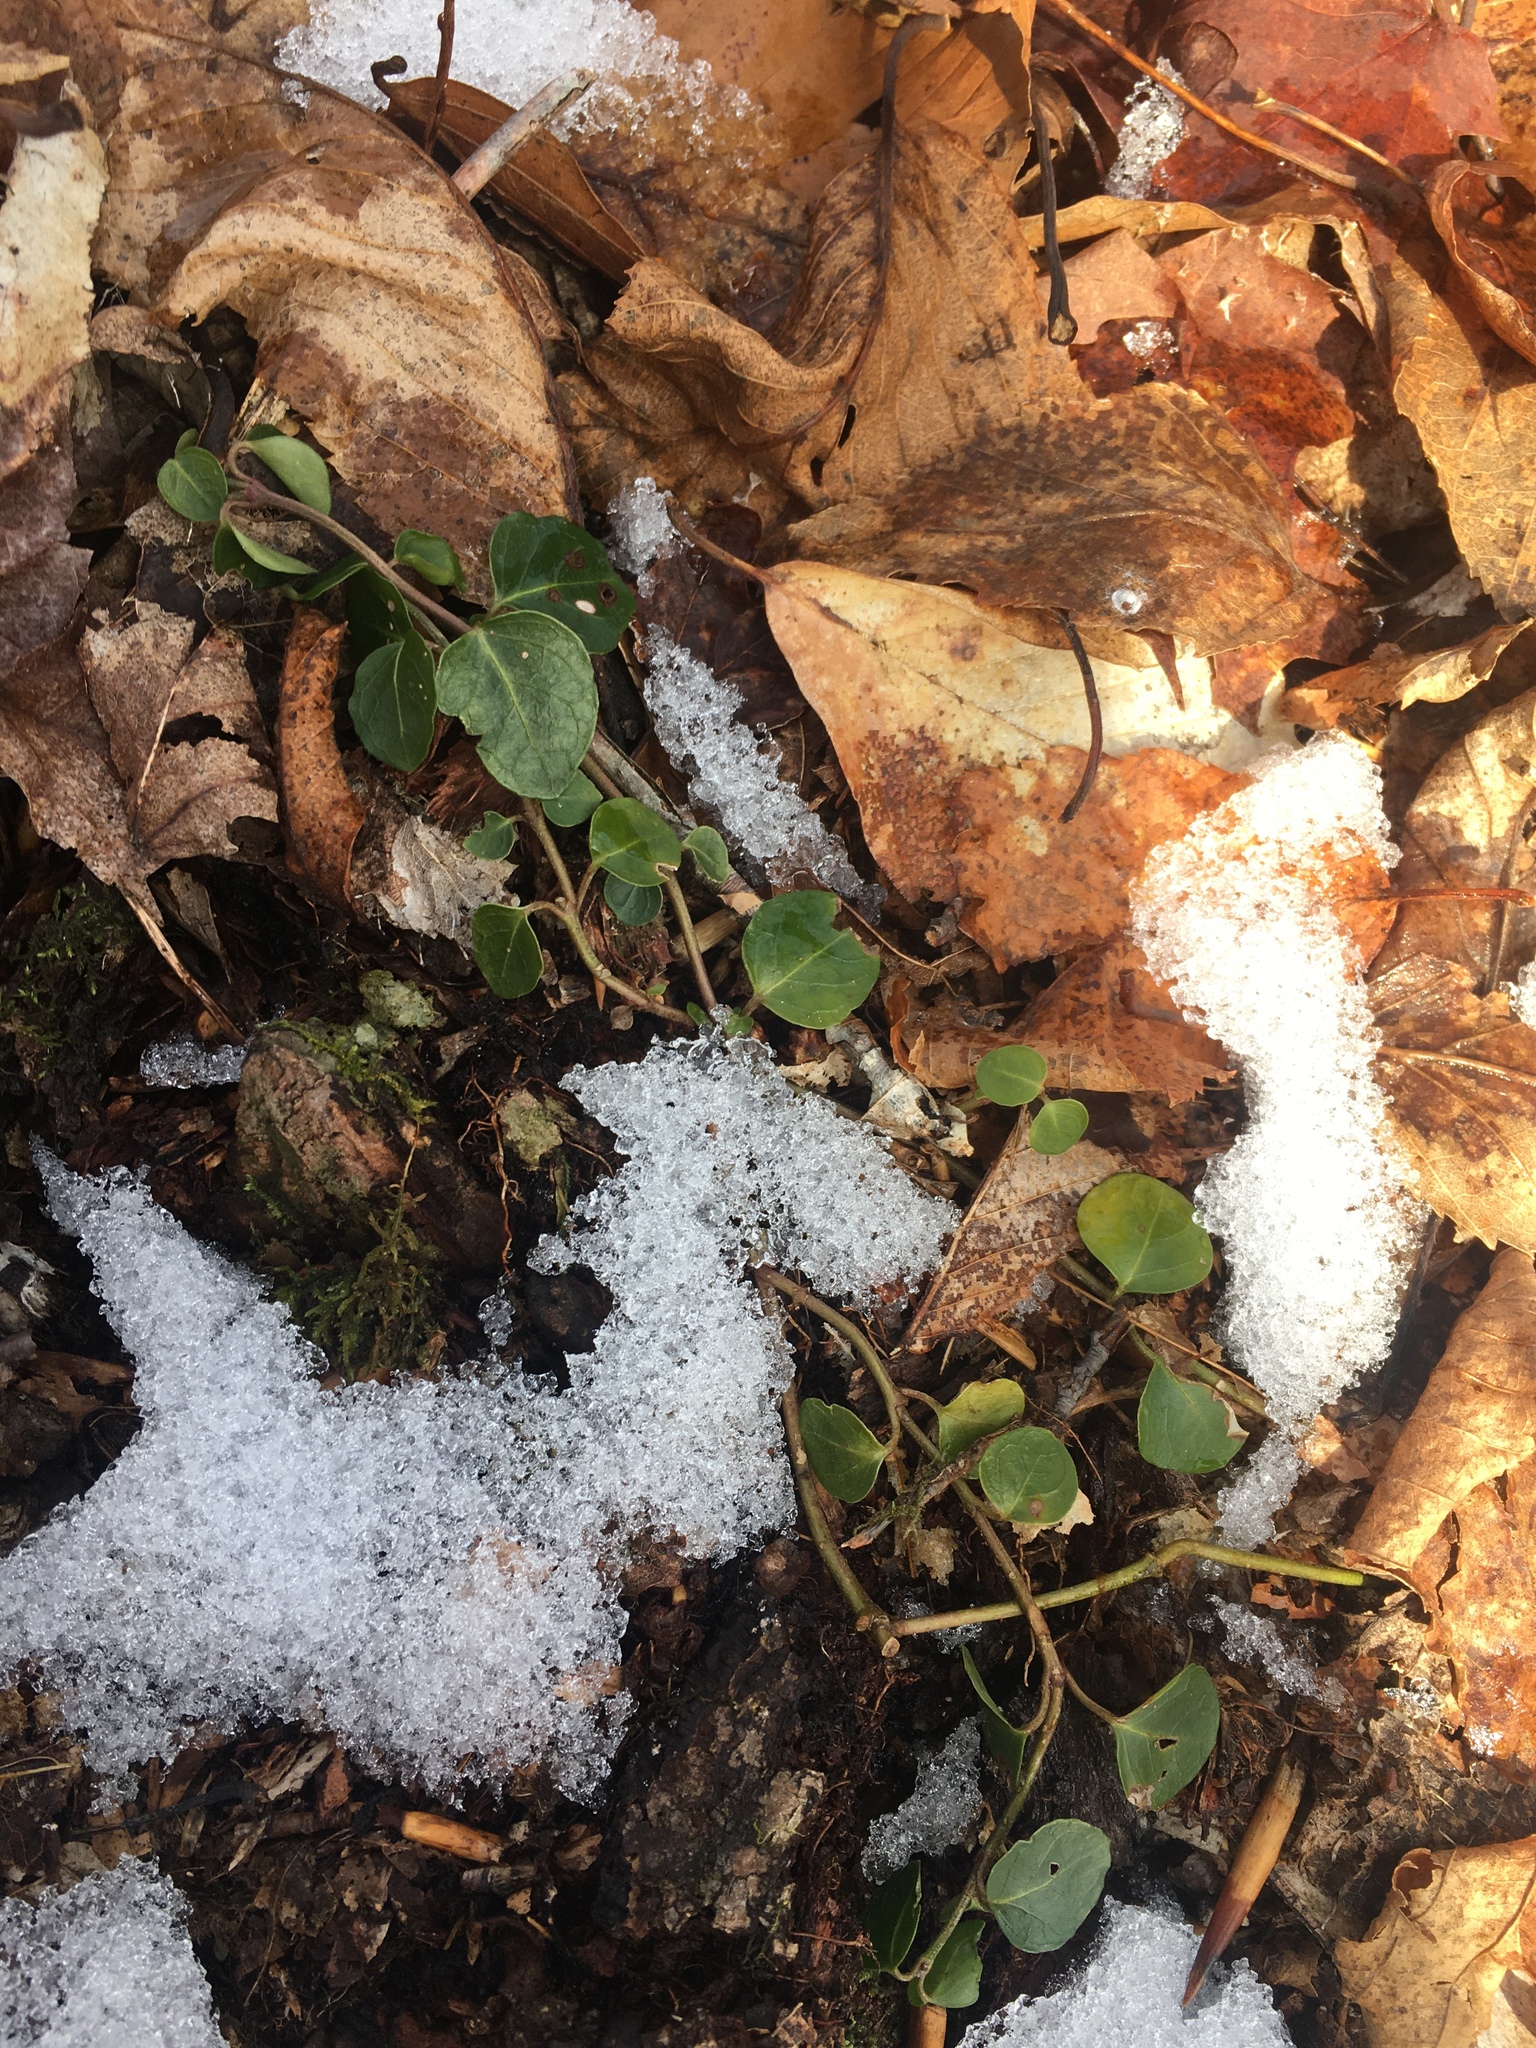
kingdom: Plantae
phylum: Tracheophyta
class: Magnoliopsida
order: Gentianales
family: Rubiaceae
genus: Mitchella
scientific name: Mitchella repens
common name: Partridge-berry
